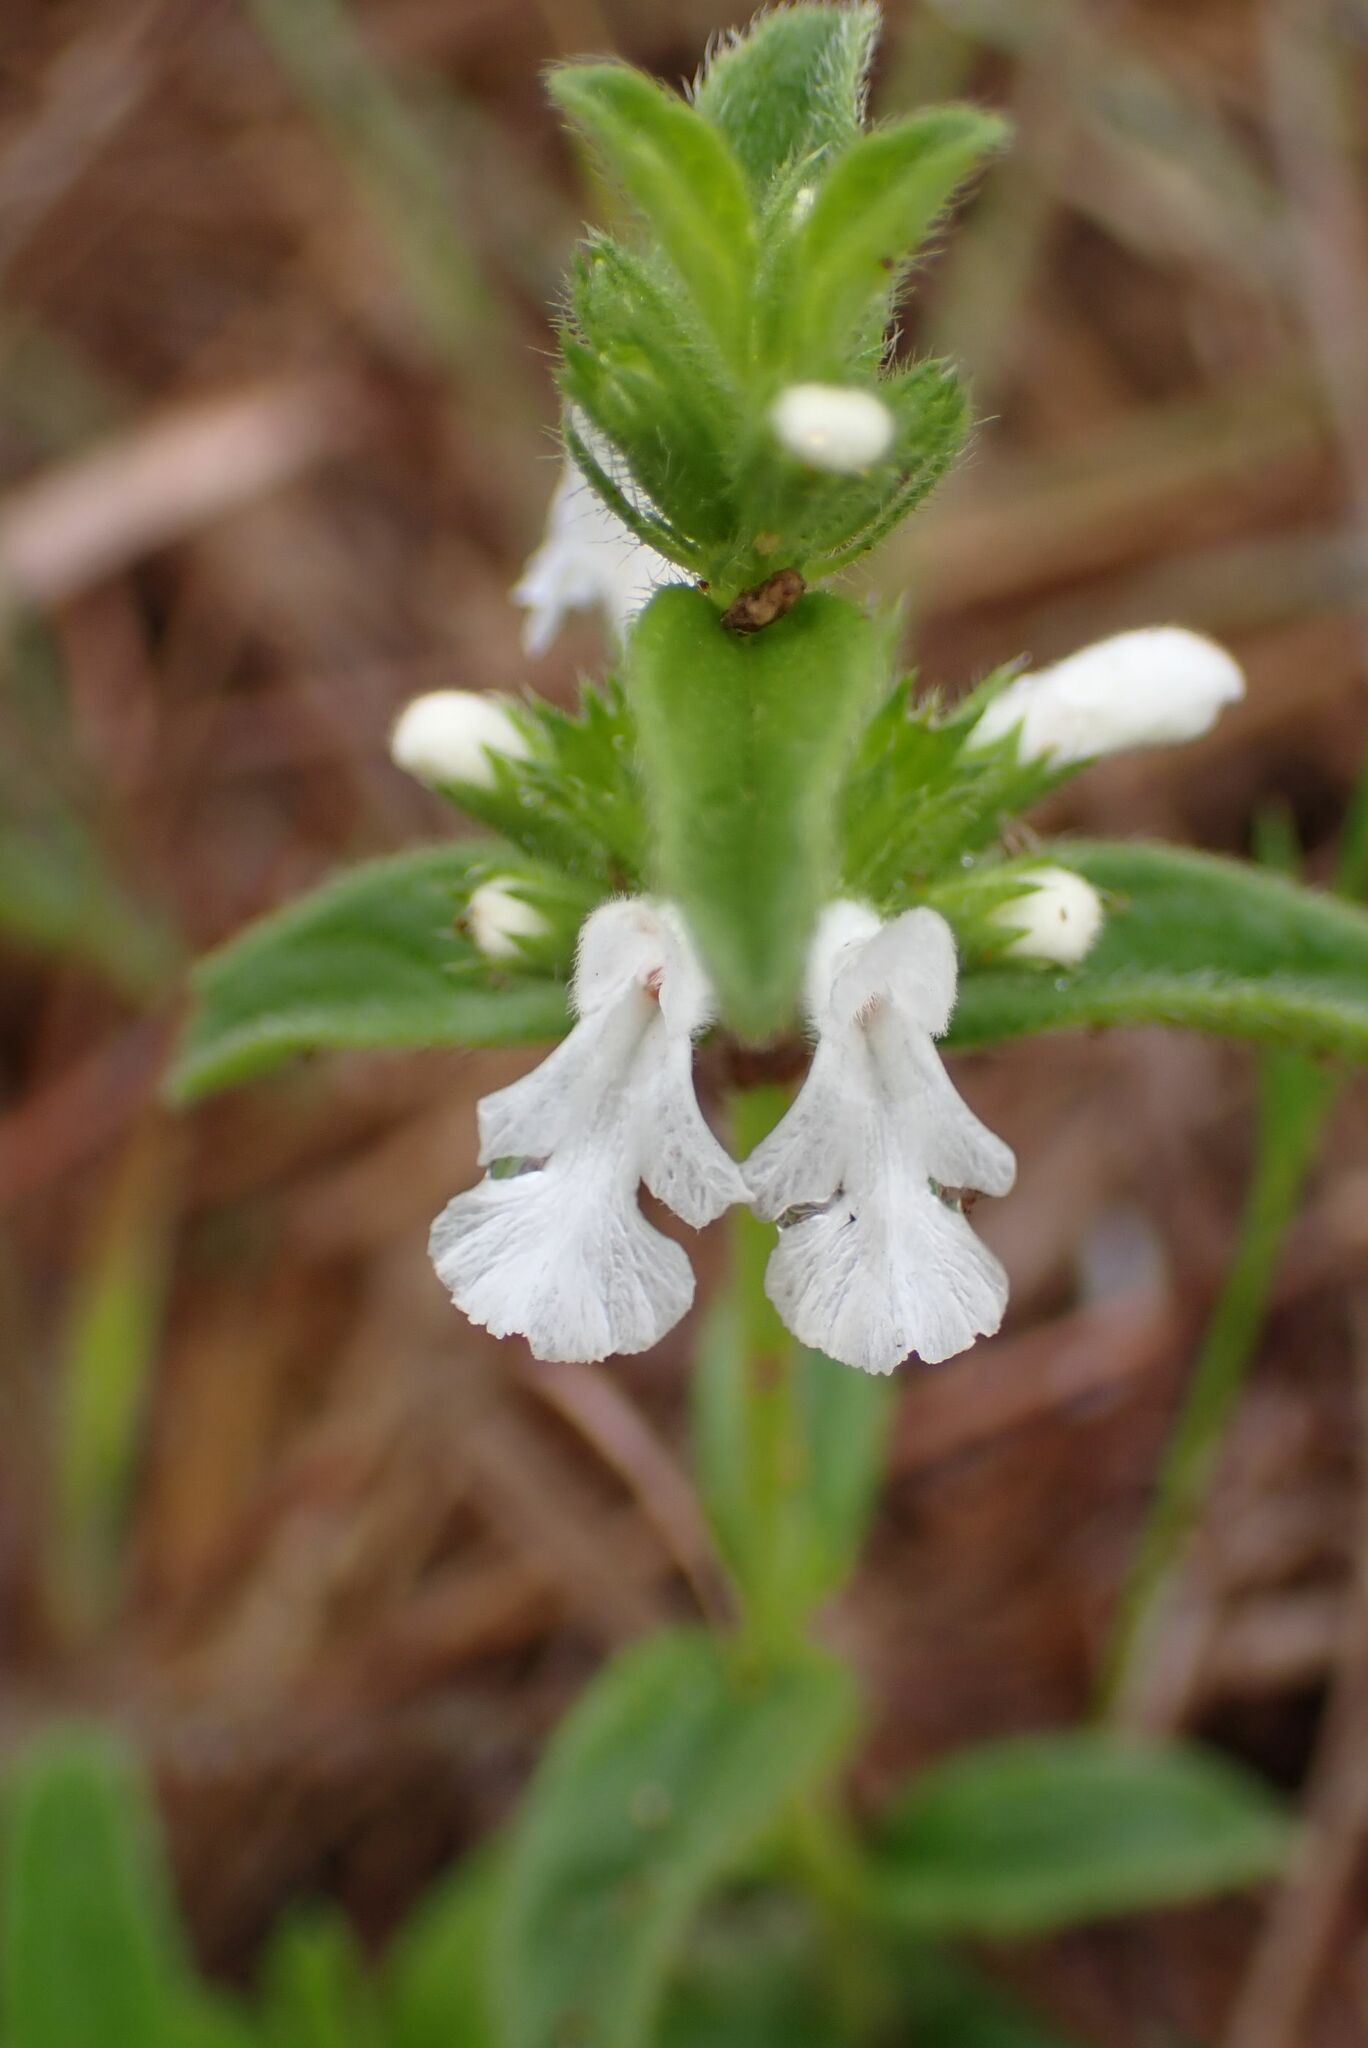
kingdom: Plantae
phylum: Tracheophyta
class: Magnoliopsida
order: Lamiales
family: Lamiaceae
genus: Acrotome
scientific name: Acrotome hispida
